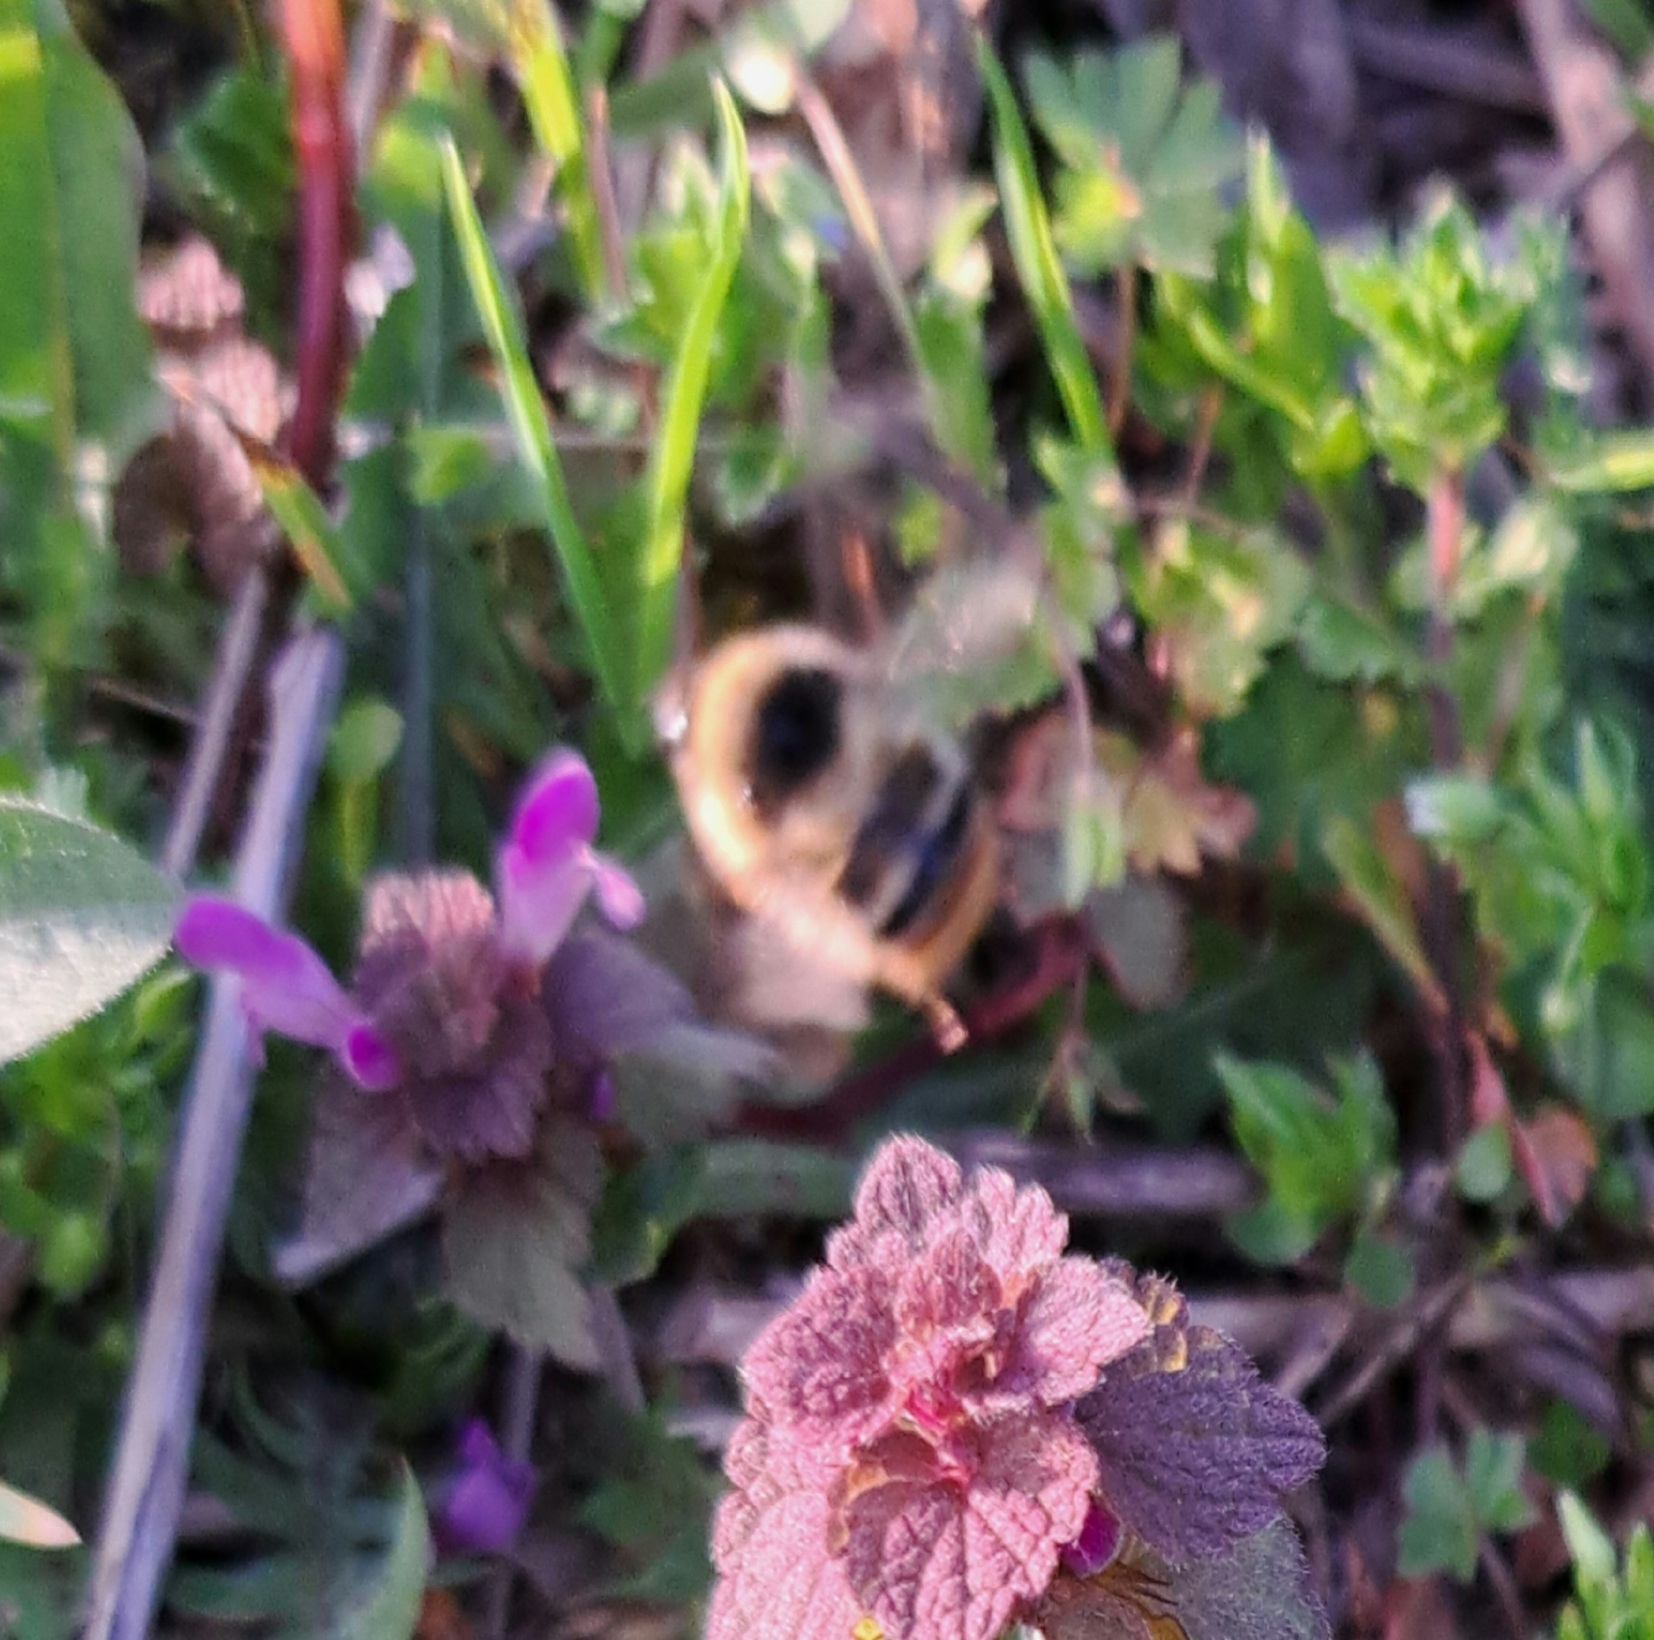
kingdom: Animalia
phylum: Arthropoda
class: Insecta
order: Hymenoptera
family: Apidae
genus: Bombus
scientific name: Bombus sylvarum
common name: Shrill carder bee
